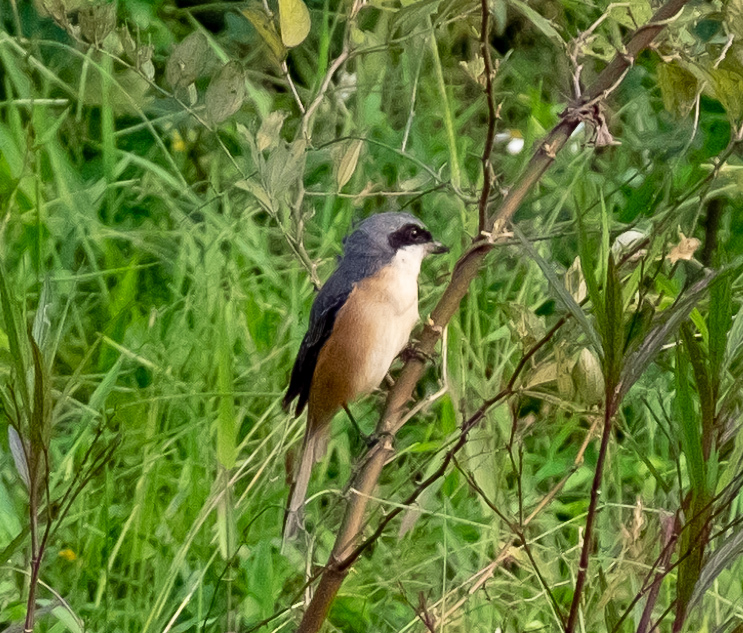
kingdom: Animalia
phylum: Chordata
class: Aves
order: Passeriformes
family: Laniidae
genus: Lanius
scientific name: Lanius tephronotus
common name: Grey-backed shrike
